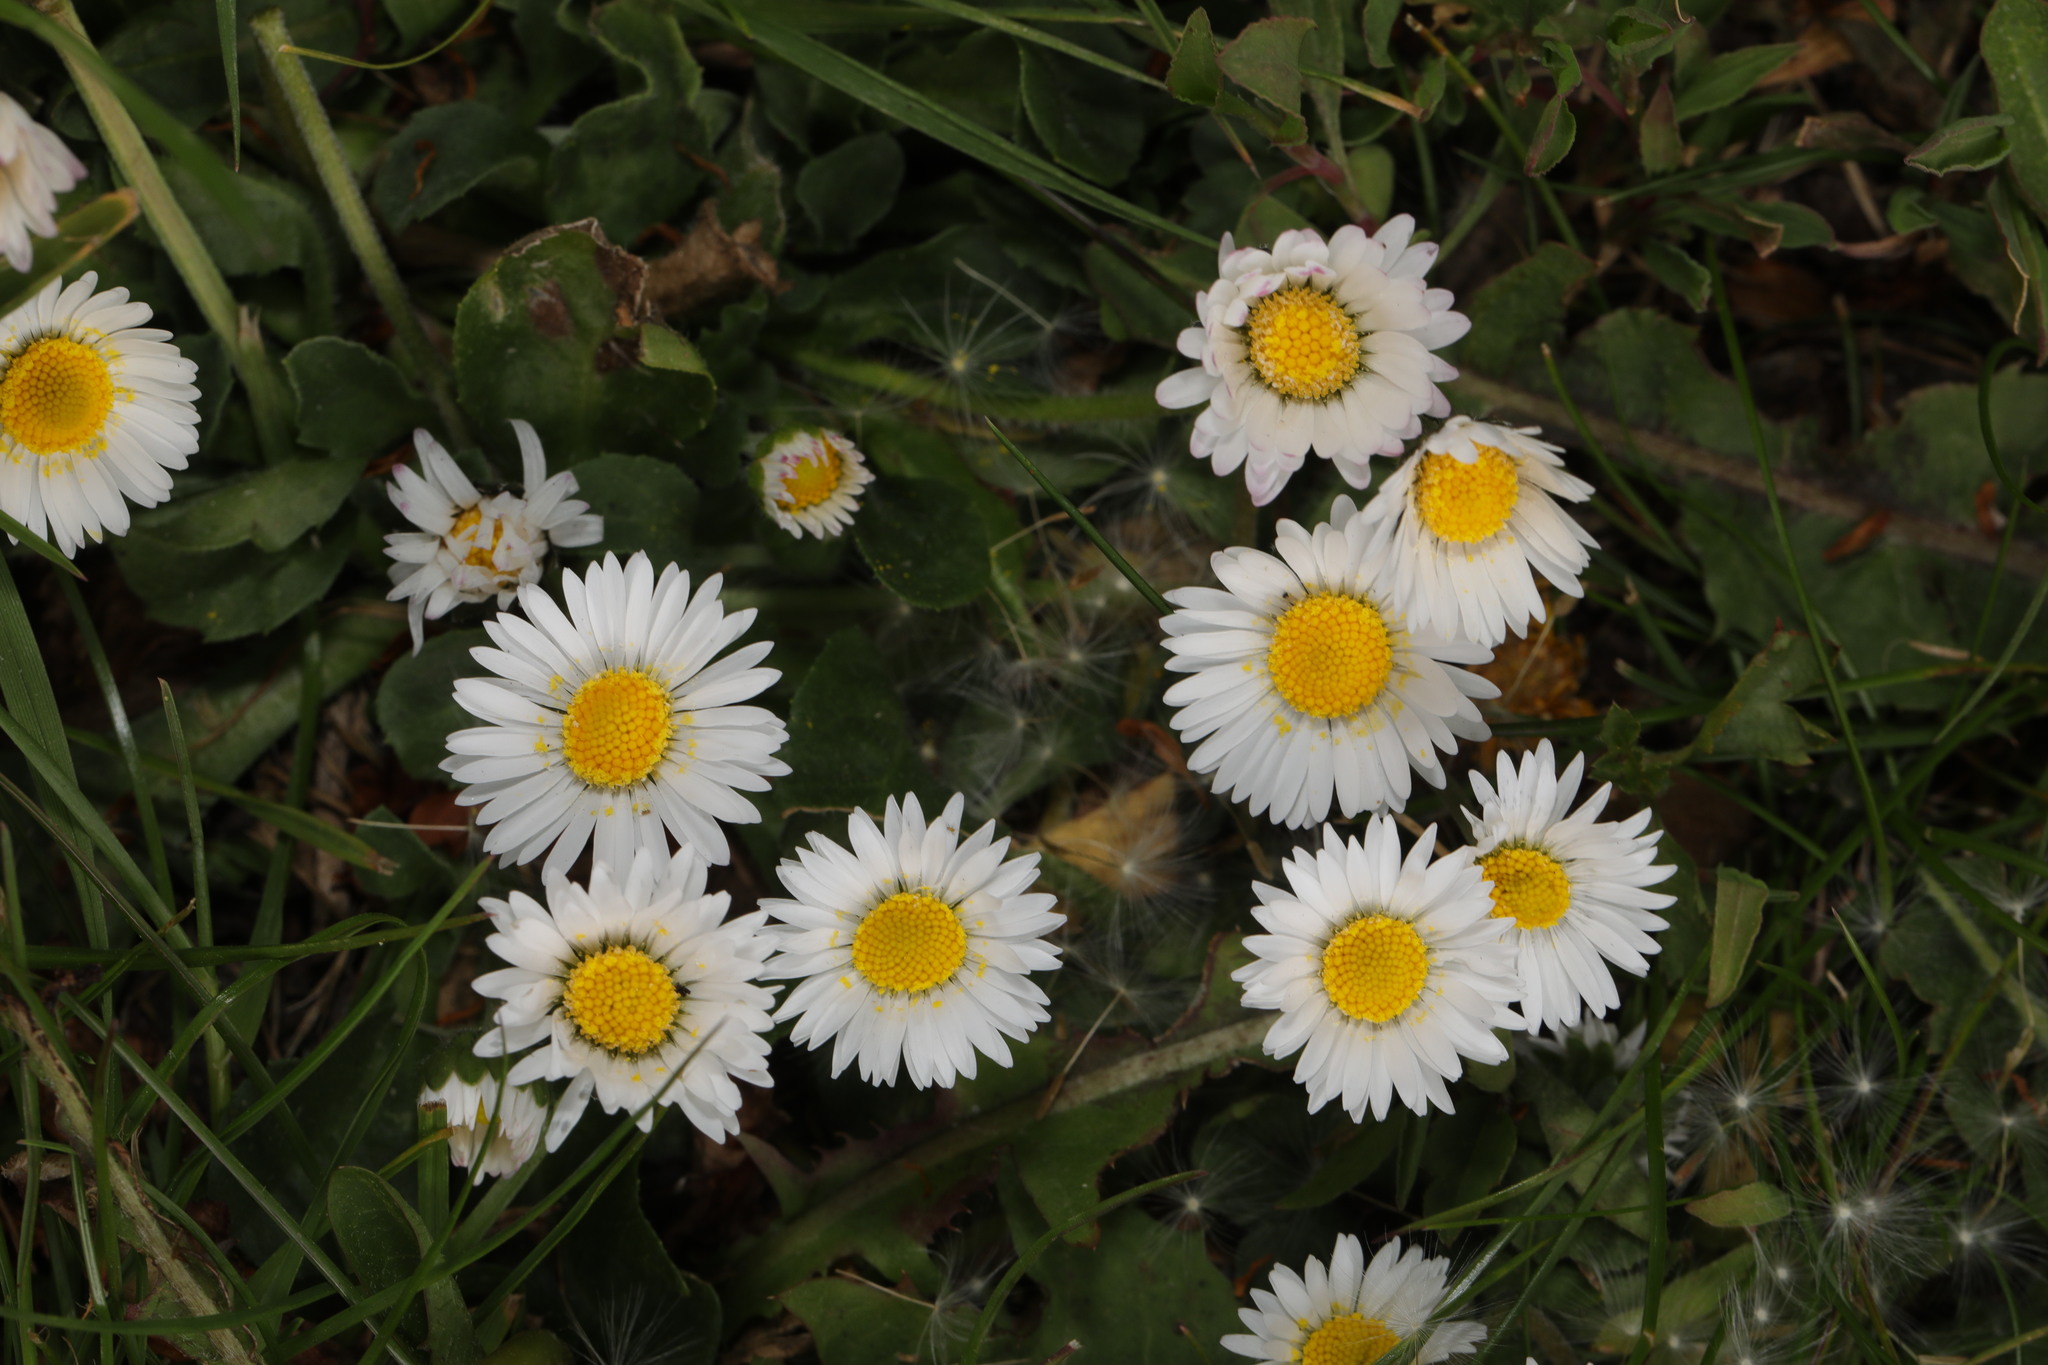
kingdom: Plantae
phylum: Tracheophyta
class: Magnoliopsida
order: Asterales
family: Asteraceae
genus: Bellis
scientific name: Bellis perennis
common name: Lawndaisy
